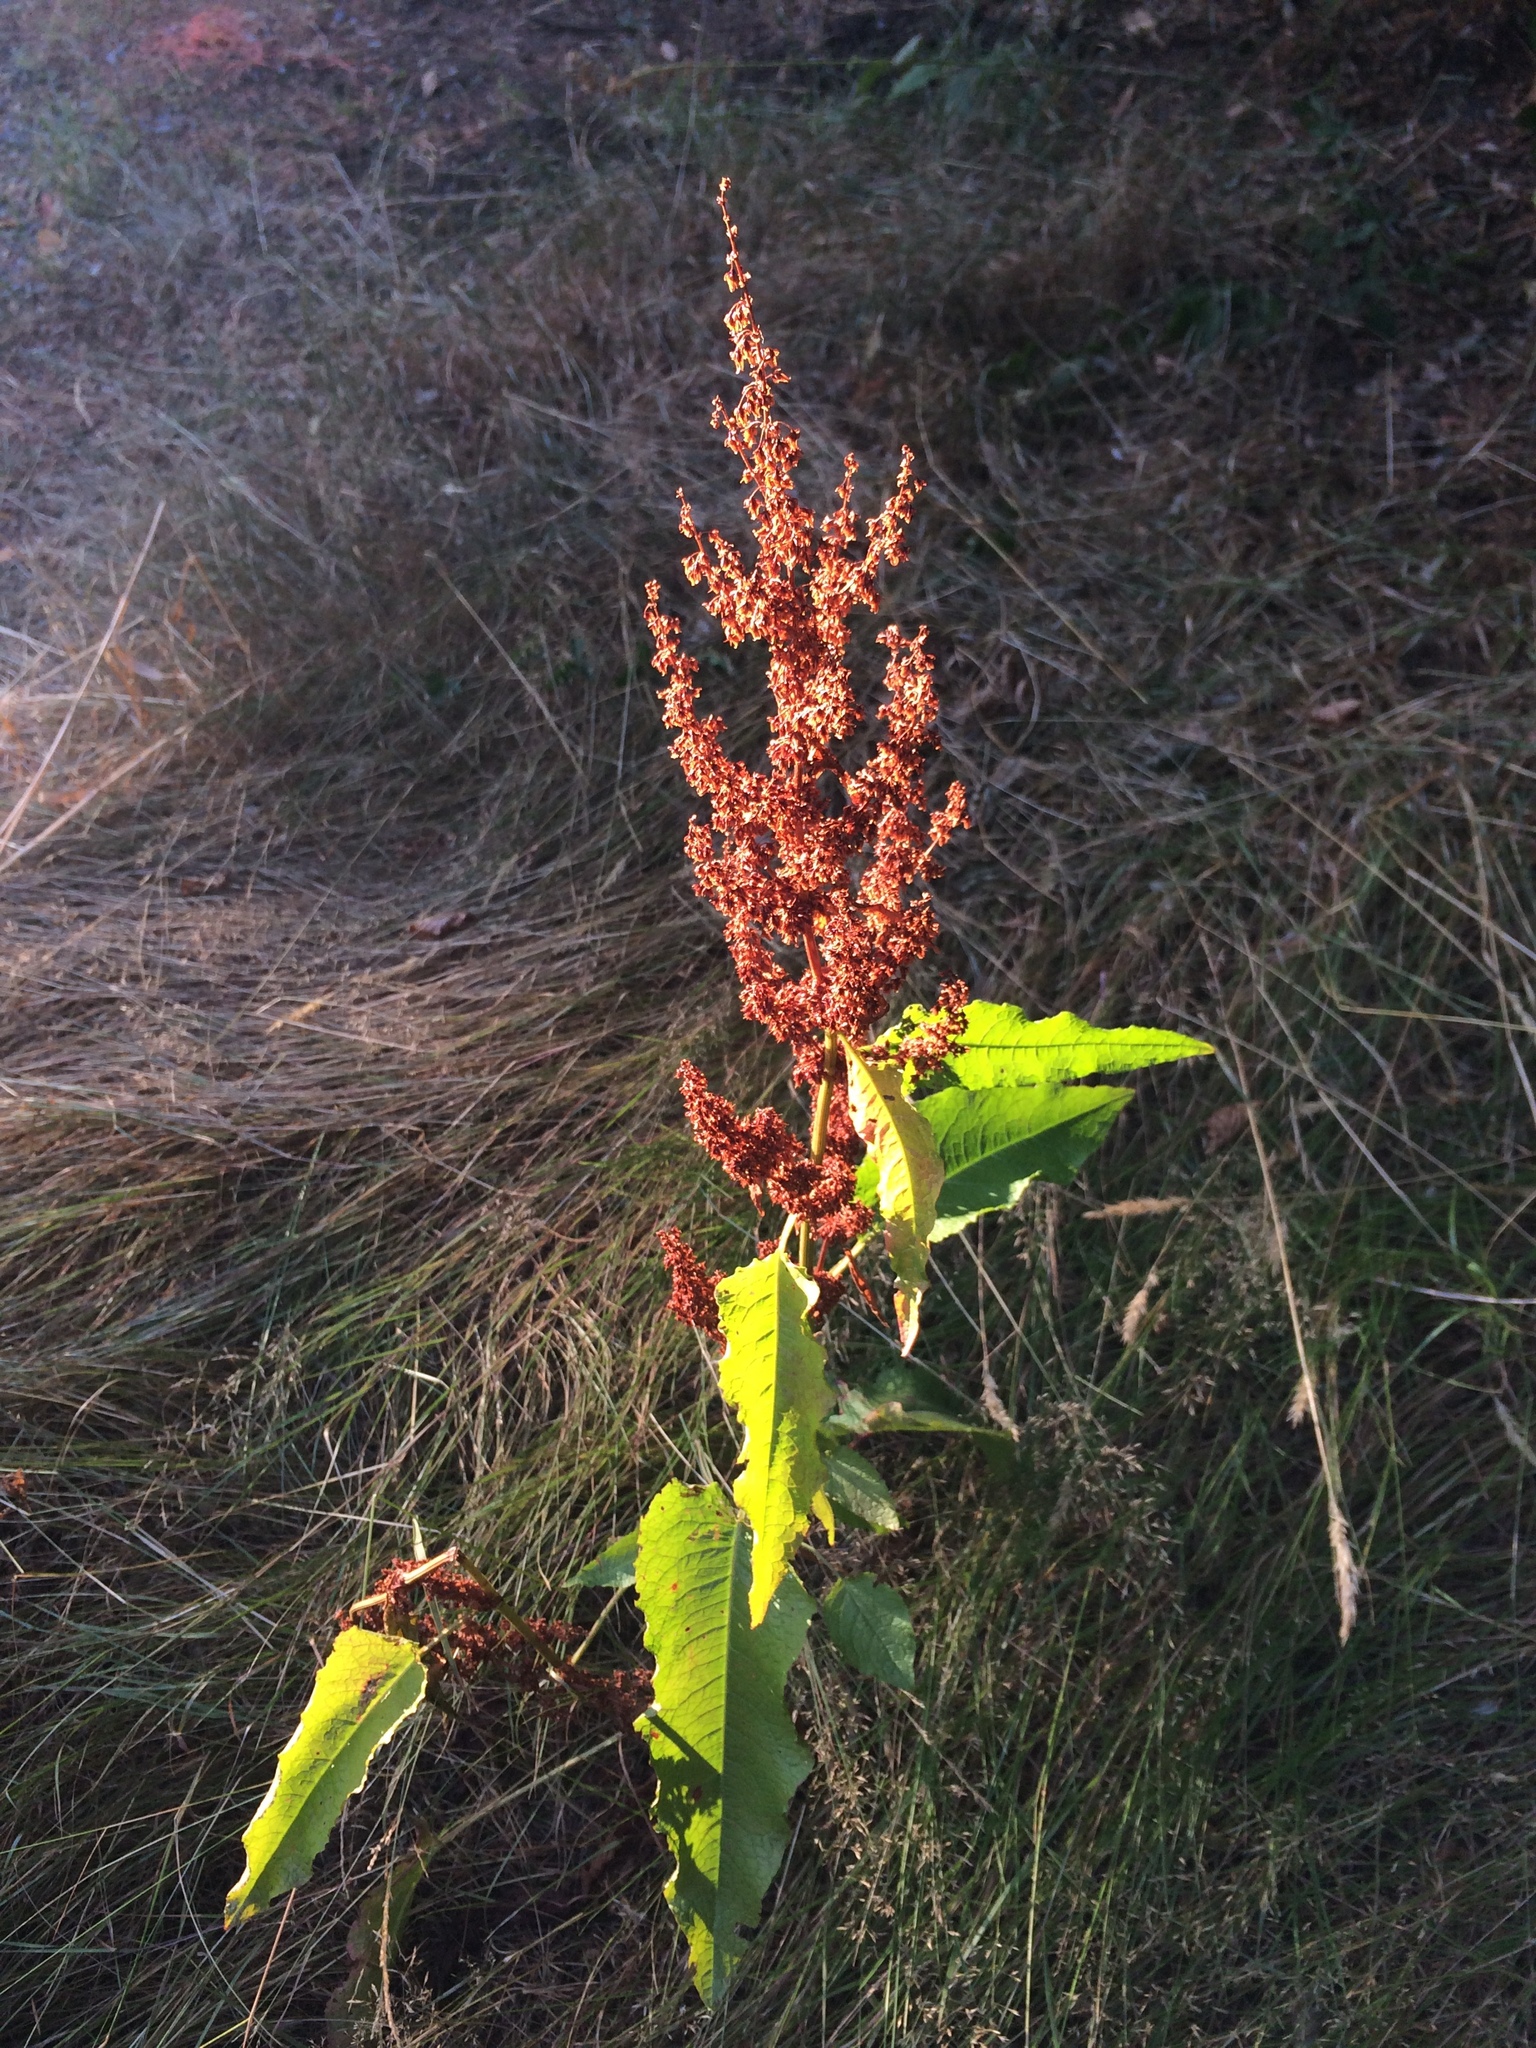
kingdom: Plantae
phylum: Tracheophyta
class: Magnoliopsida
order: Caryophyllales
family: Polygonaceae
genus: Rumex
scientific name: Rumex crispus
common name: Curled dock
